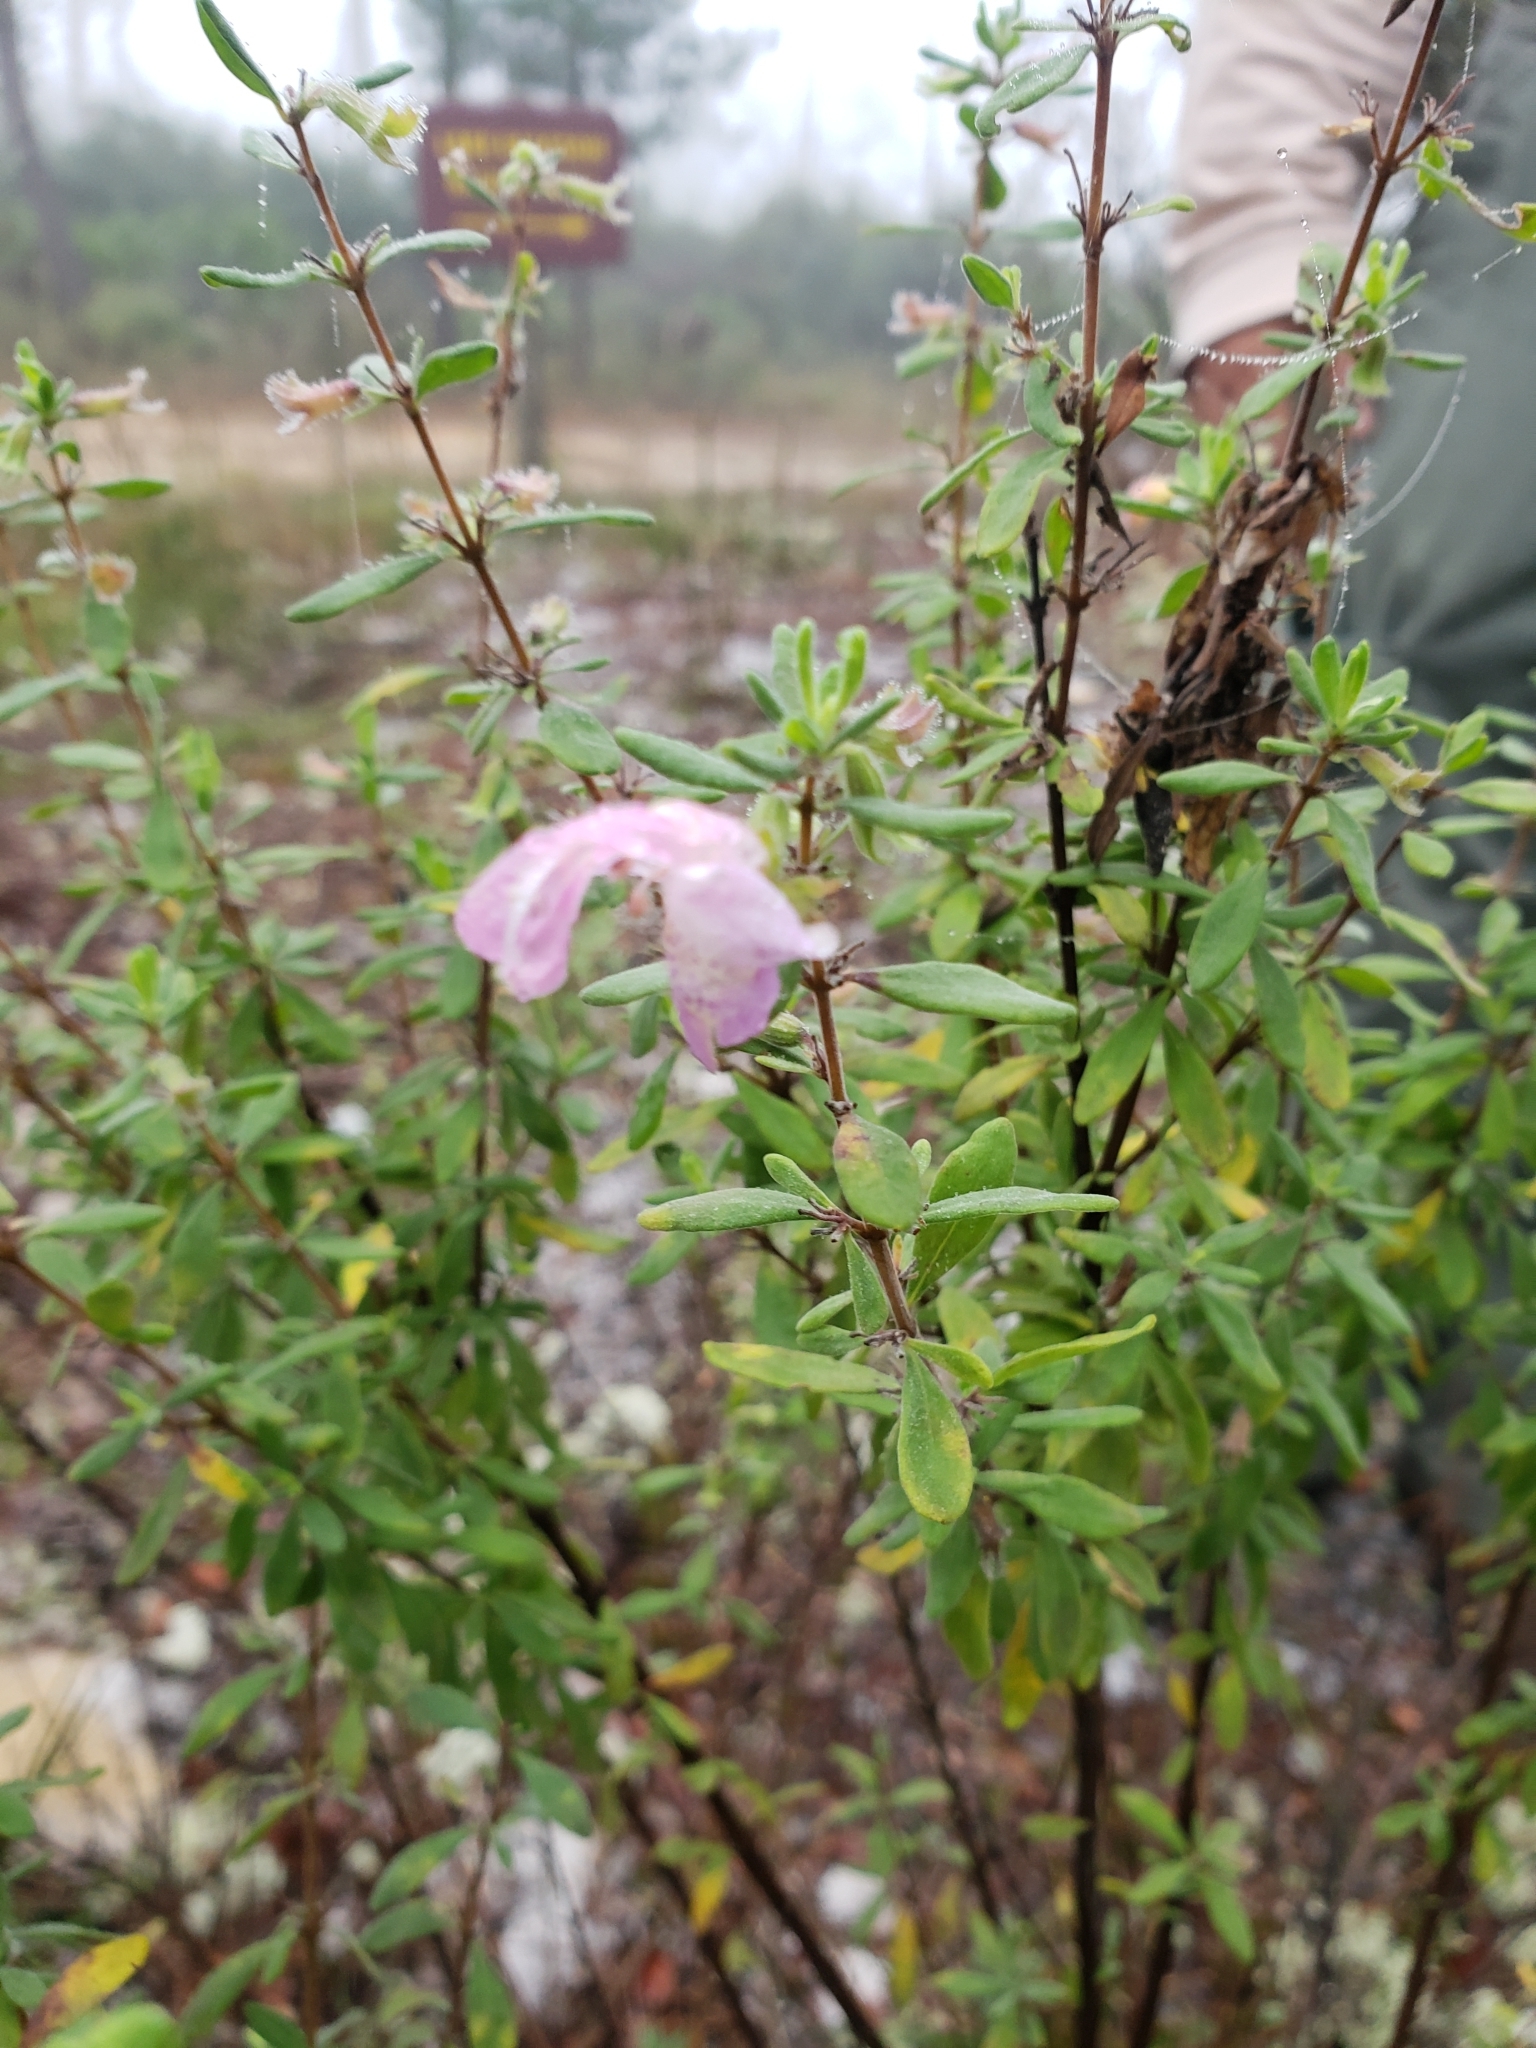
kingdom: Plantae
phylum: Tracheophyta
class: Magnoliopsida
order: Lamiales
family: Lamiaceae
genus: Conradina
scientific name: Conradina grandiflora
